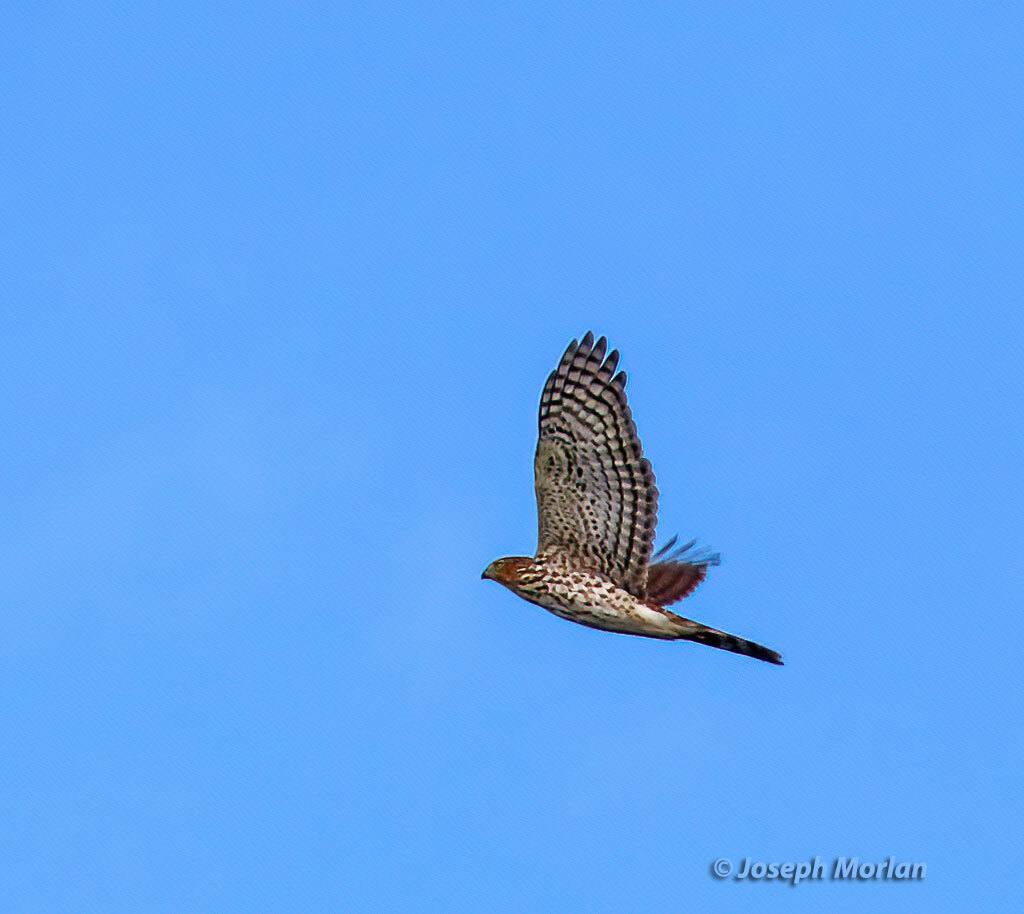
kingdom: Animalia
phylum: Chordata
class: Aves
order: Accipitriformes
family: Accipitridae
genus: Accipiter
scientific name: Accipiter cooperii
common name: Cooper's hawk
